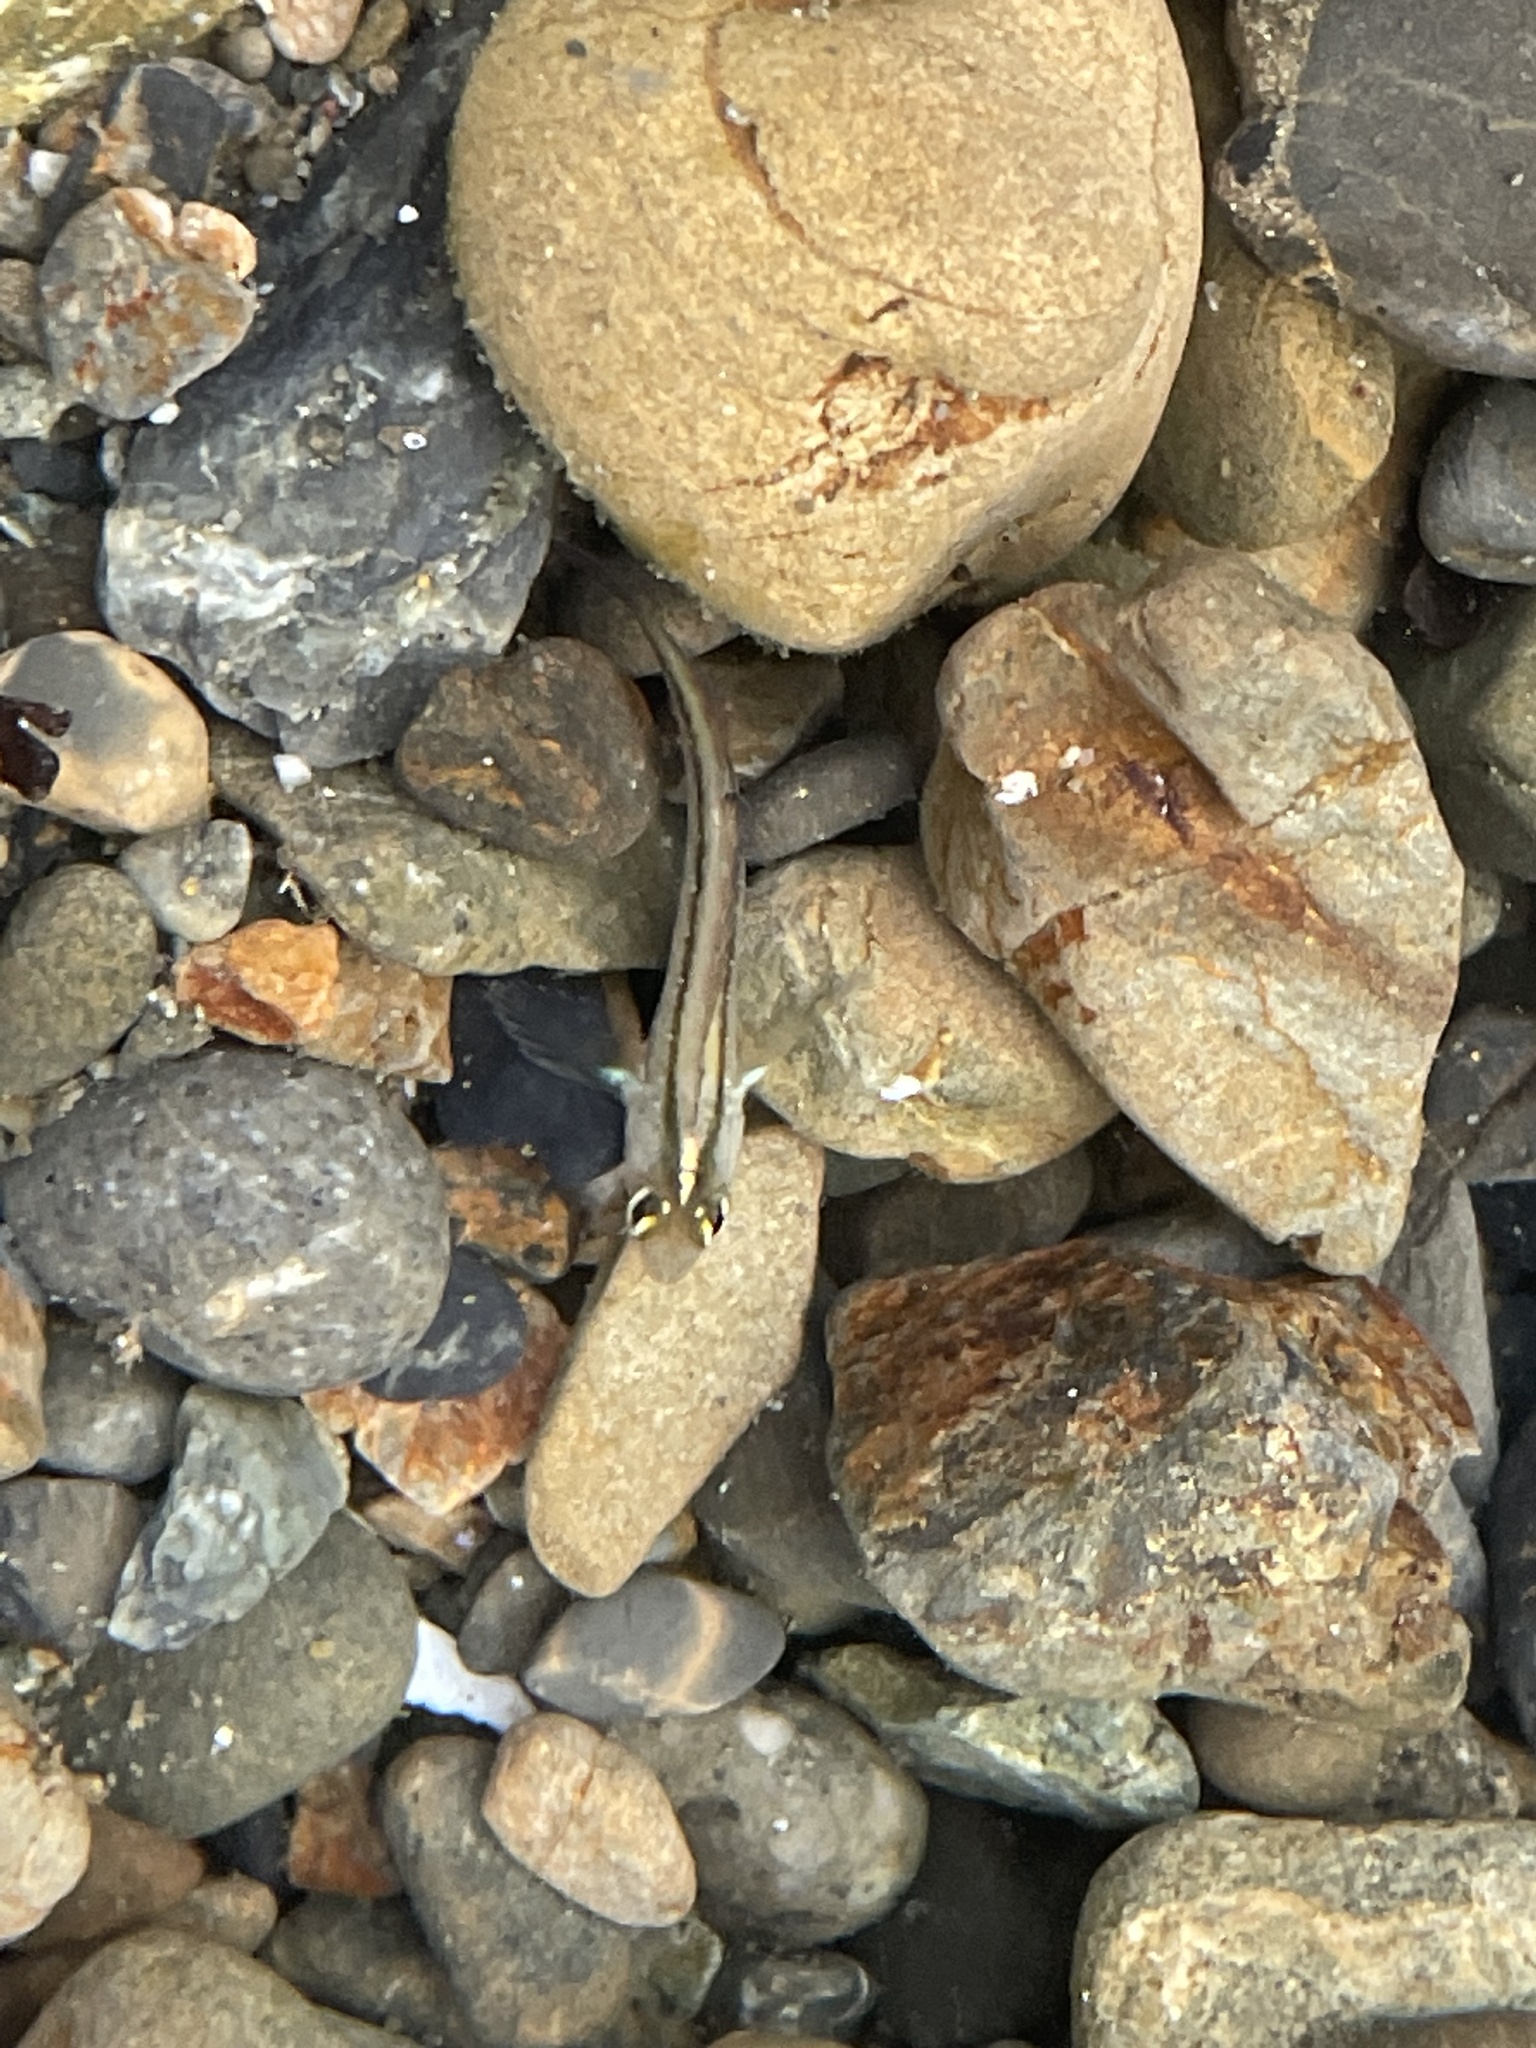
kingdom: Animalia
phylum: Chordata
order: Perciformes
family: Tripterygiidae
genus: Forsterygion
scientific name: Forsterygion lapillum
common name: Common triplefin
